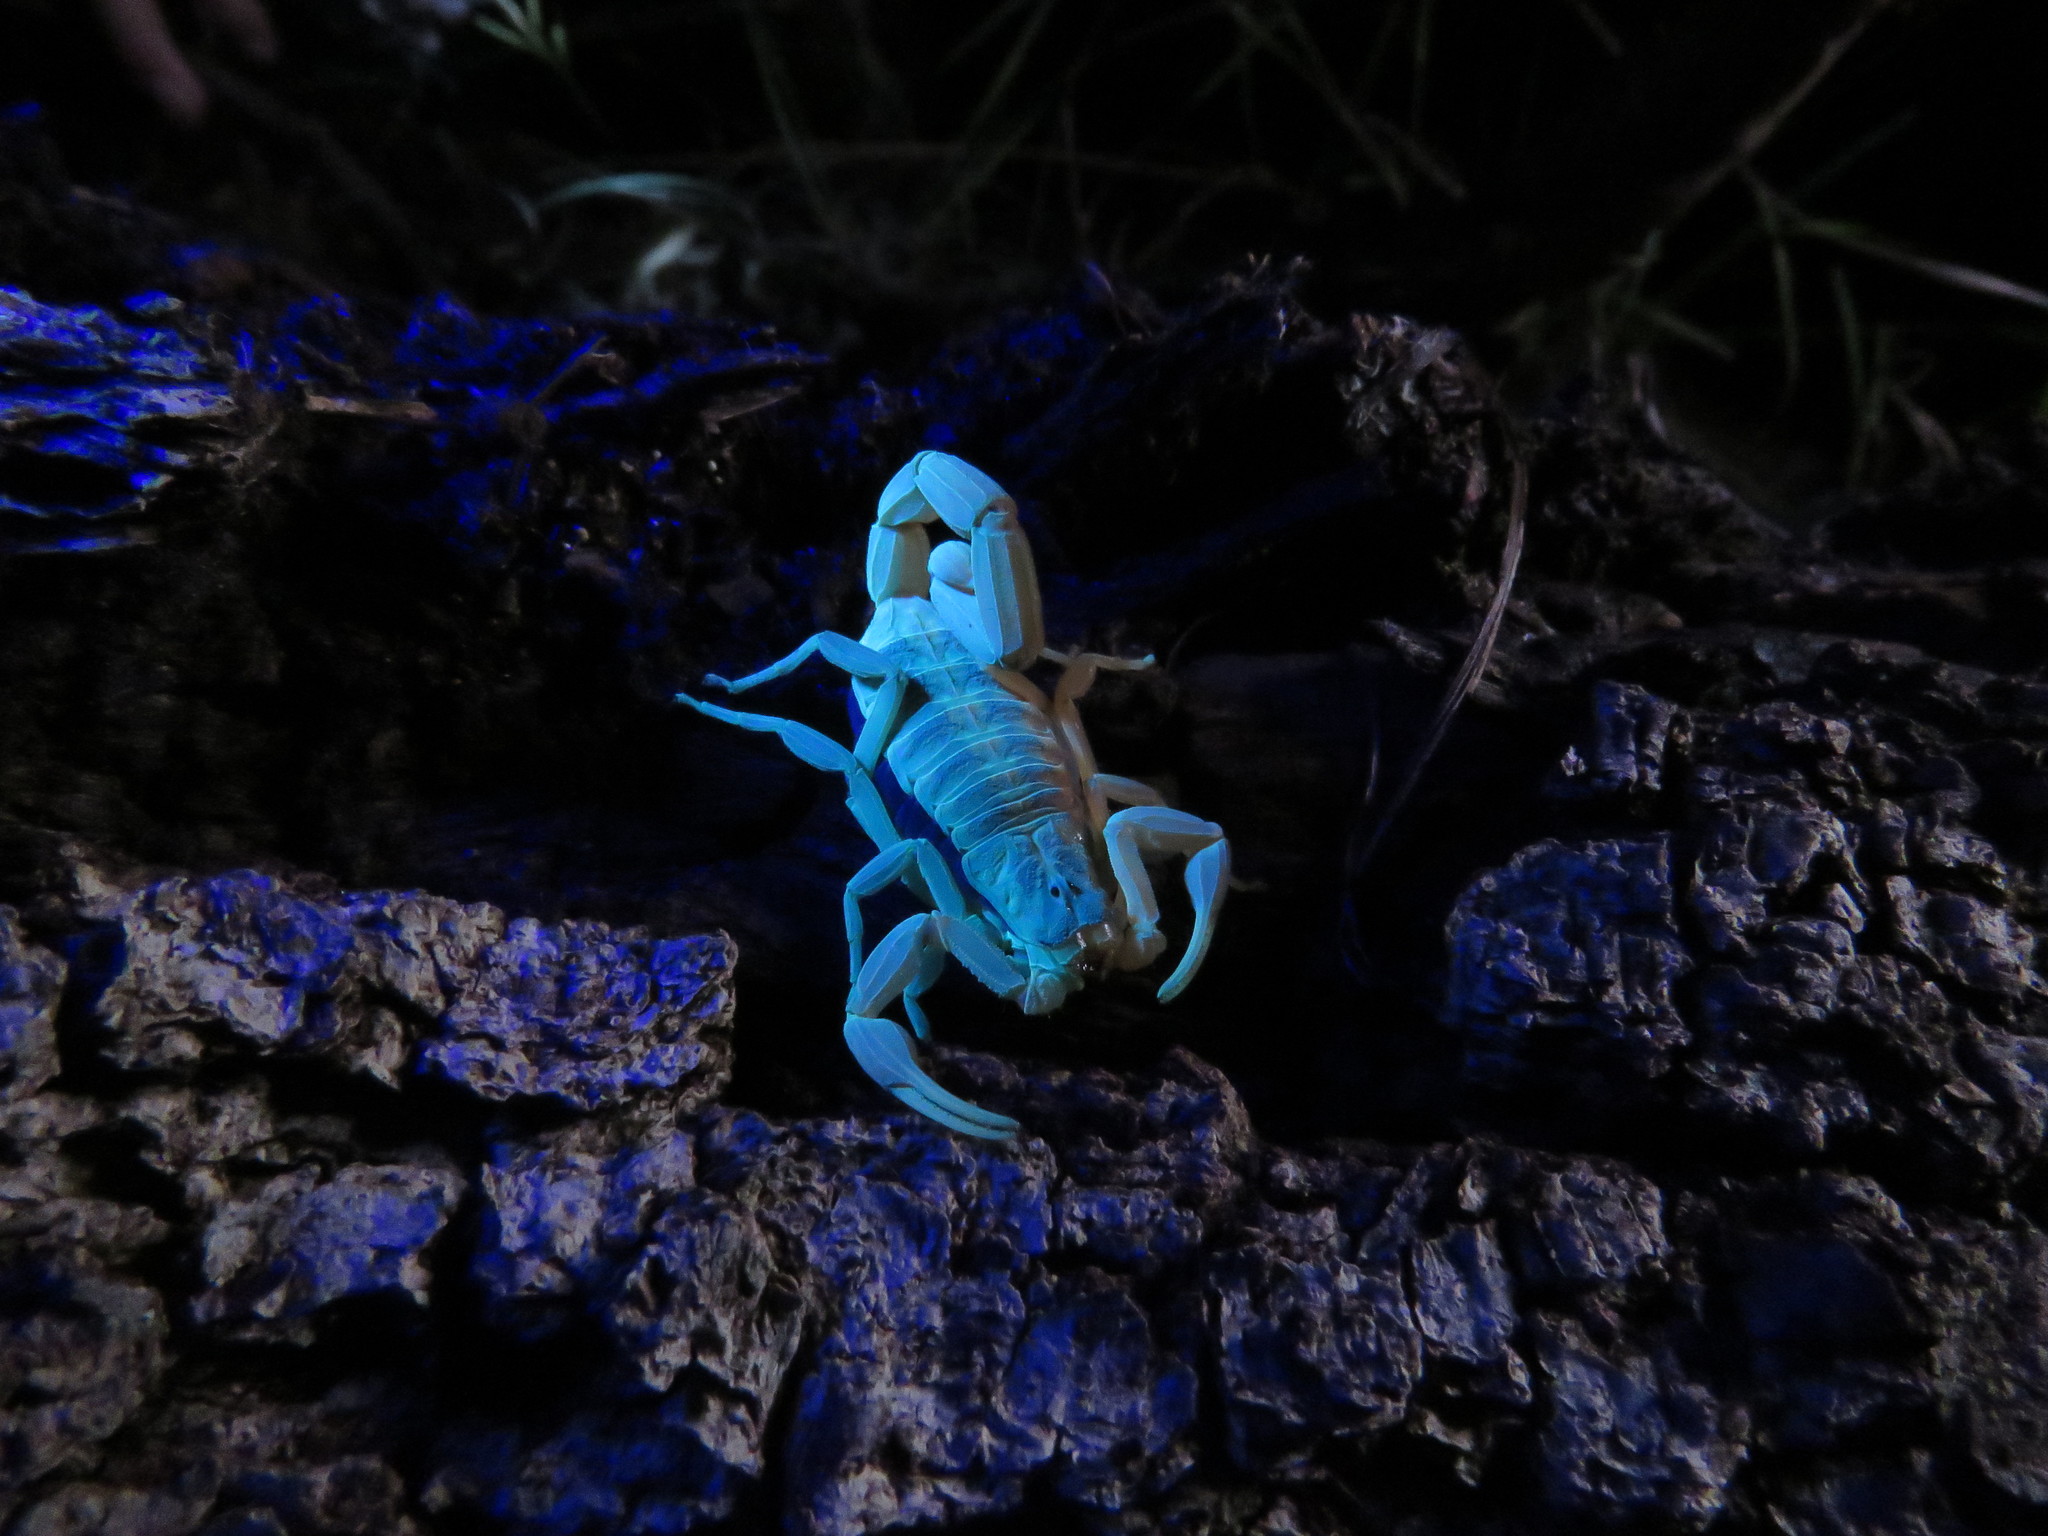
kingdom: Animalia
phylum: Arthropoda
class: Arachnida
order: Scorpiones
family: Buthidae
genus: Centruroides
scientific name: Centruroides vittatus
